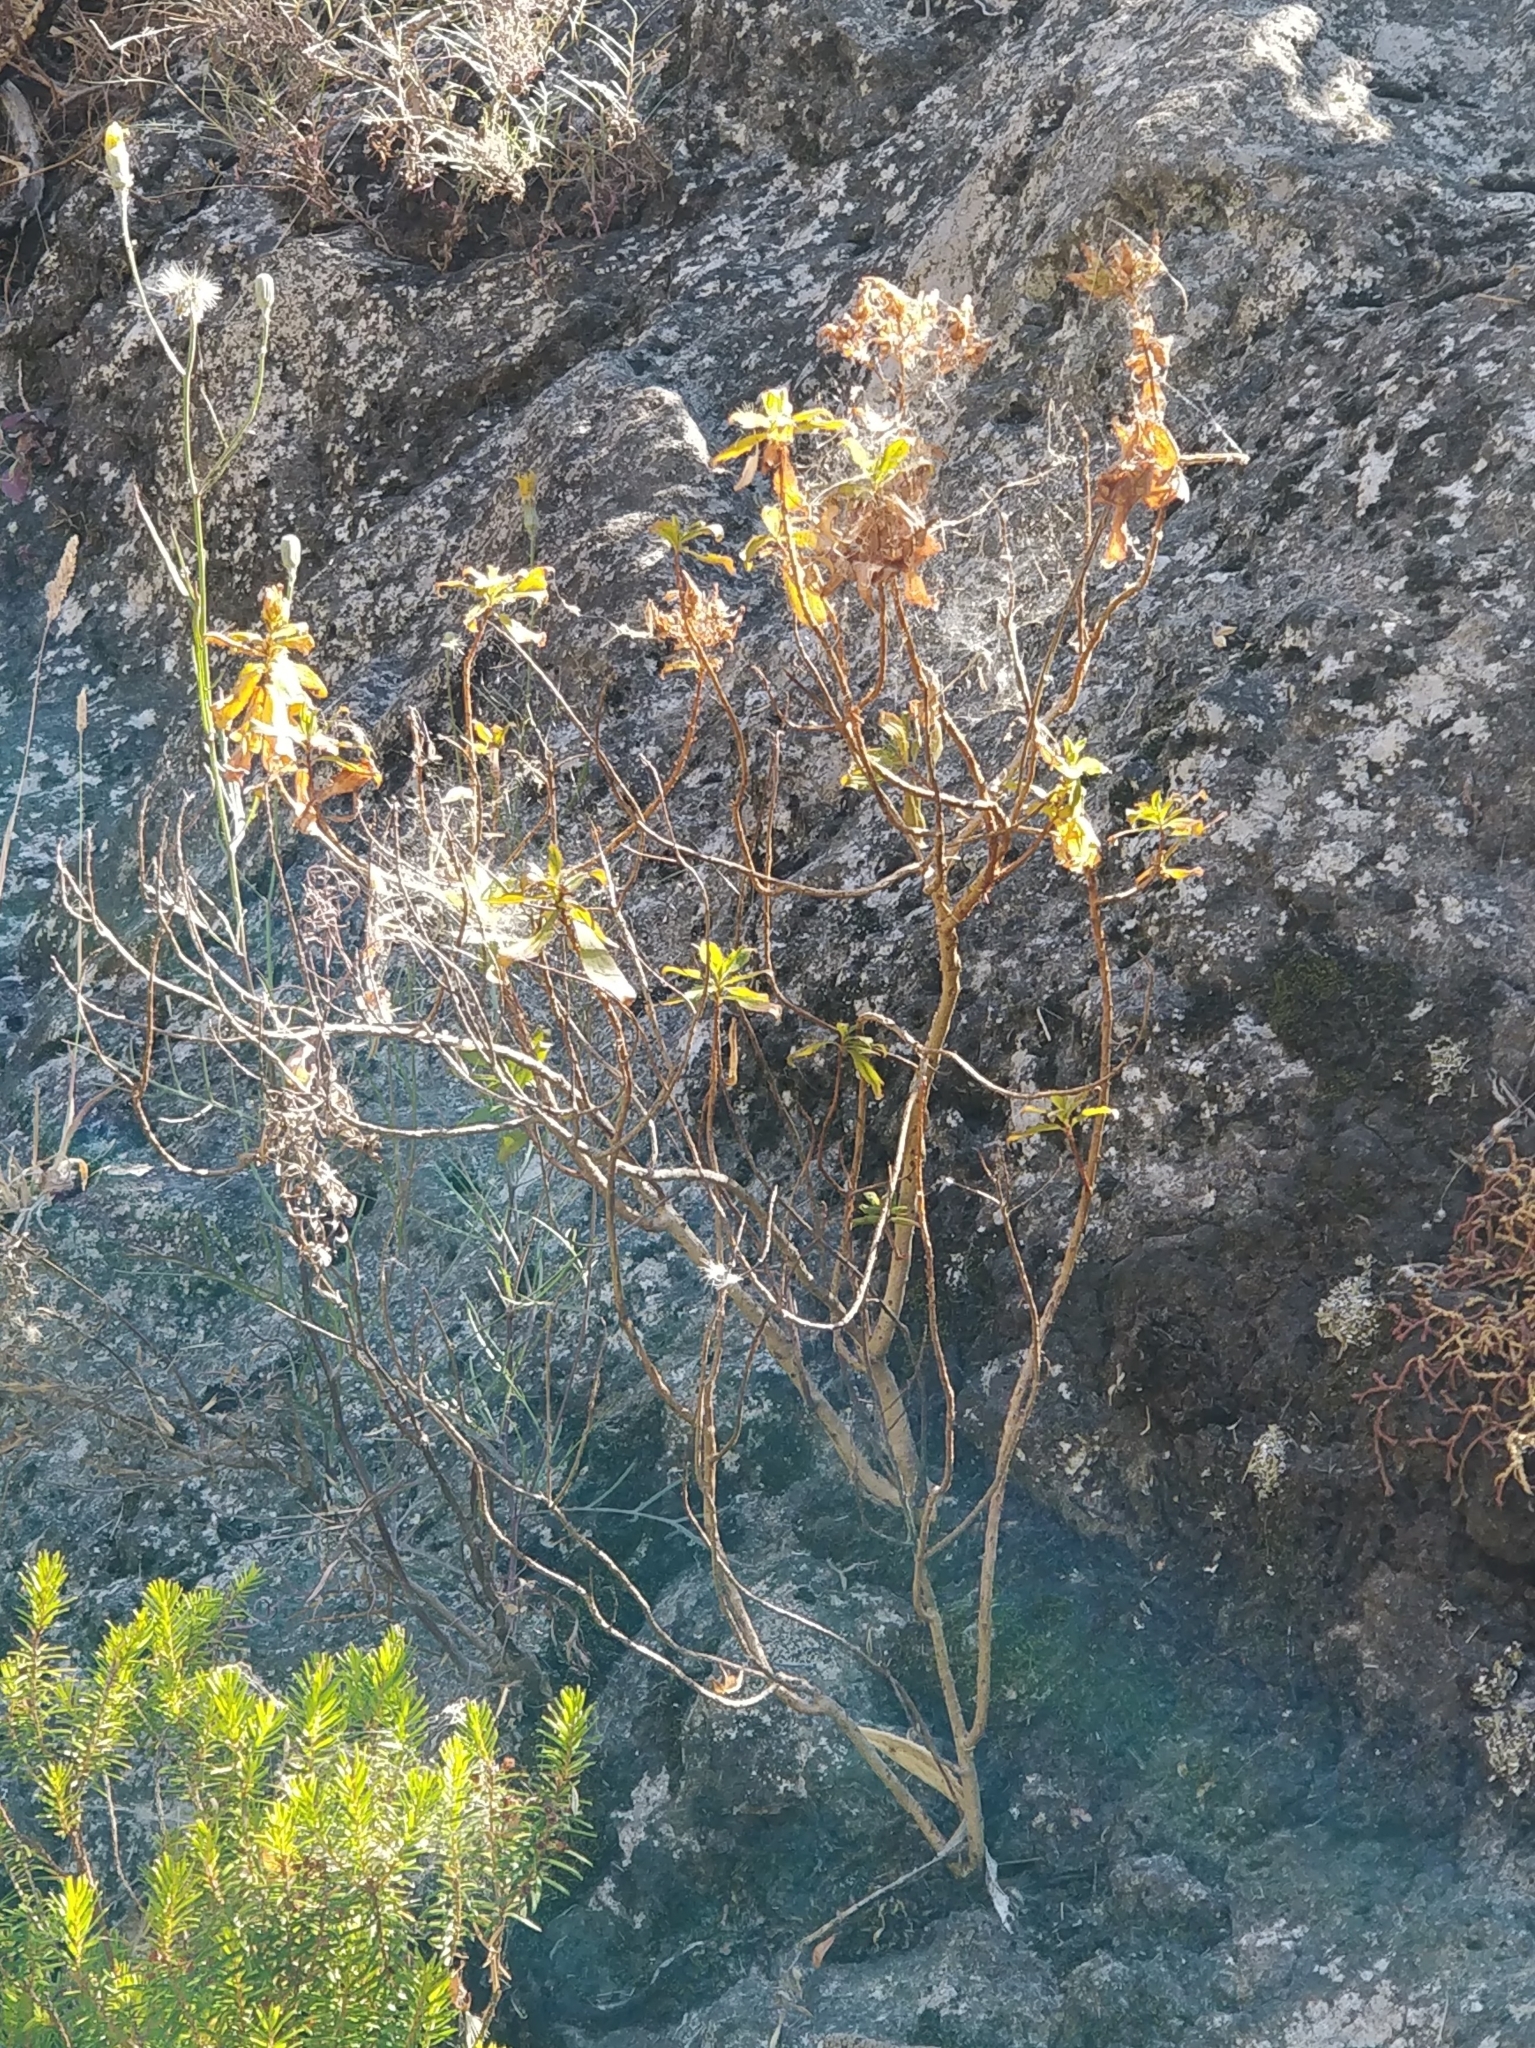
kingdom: Plantae
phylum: Tracheophyta
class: Magnoliopsida
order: Malpighiales
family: Hypericaceae
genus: Hypericum
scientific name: Hypericum glandulosum
